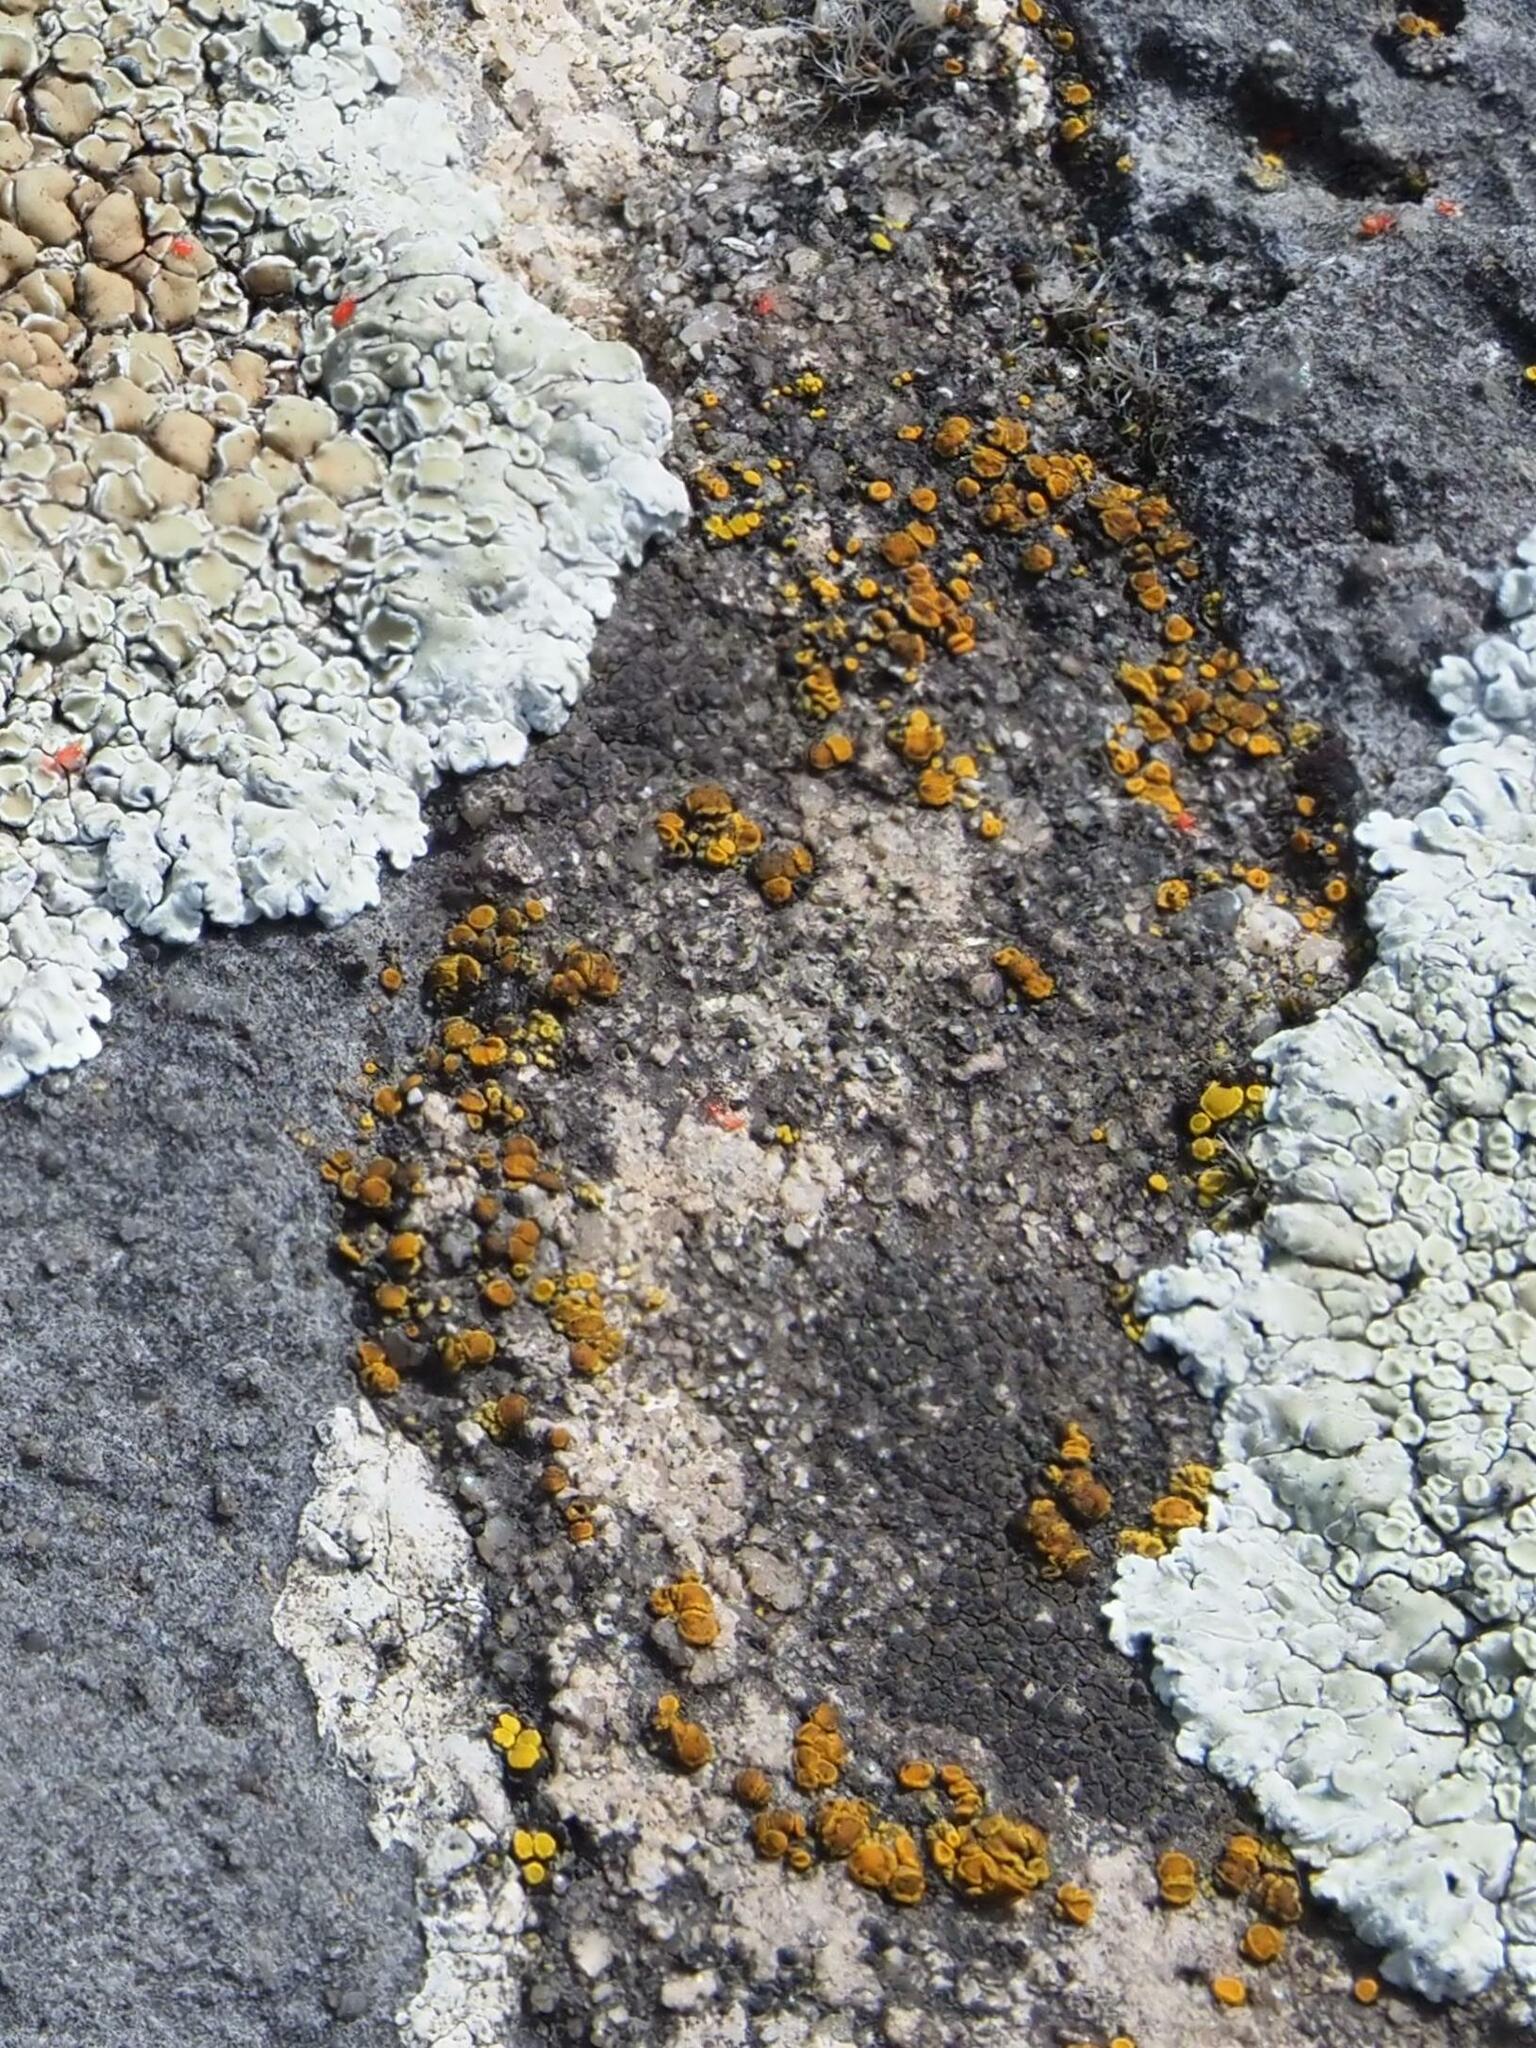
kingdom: Fungi
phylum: Ascomycota
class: Candelariomycetes
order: Candelariales
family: Candelariaceae
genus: Candelariella
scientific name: Candelariella aurella
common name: Hidden goldspeck lichen
